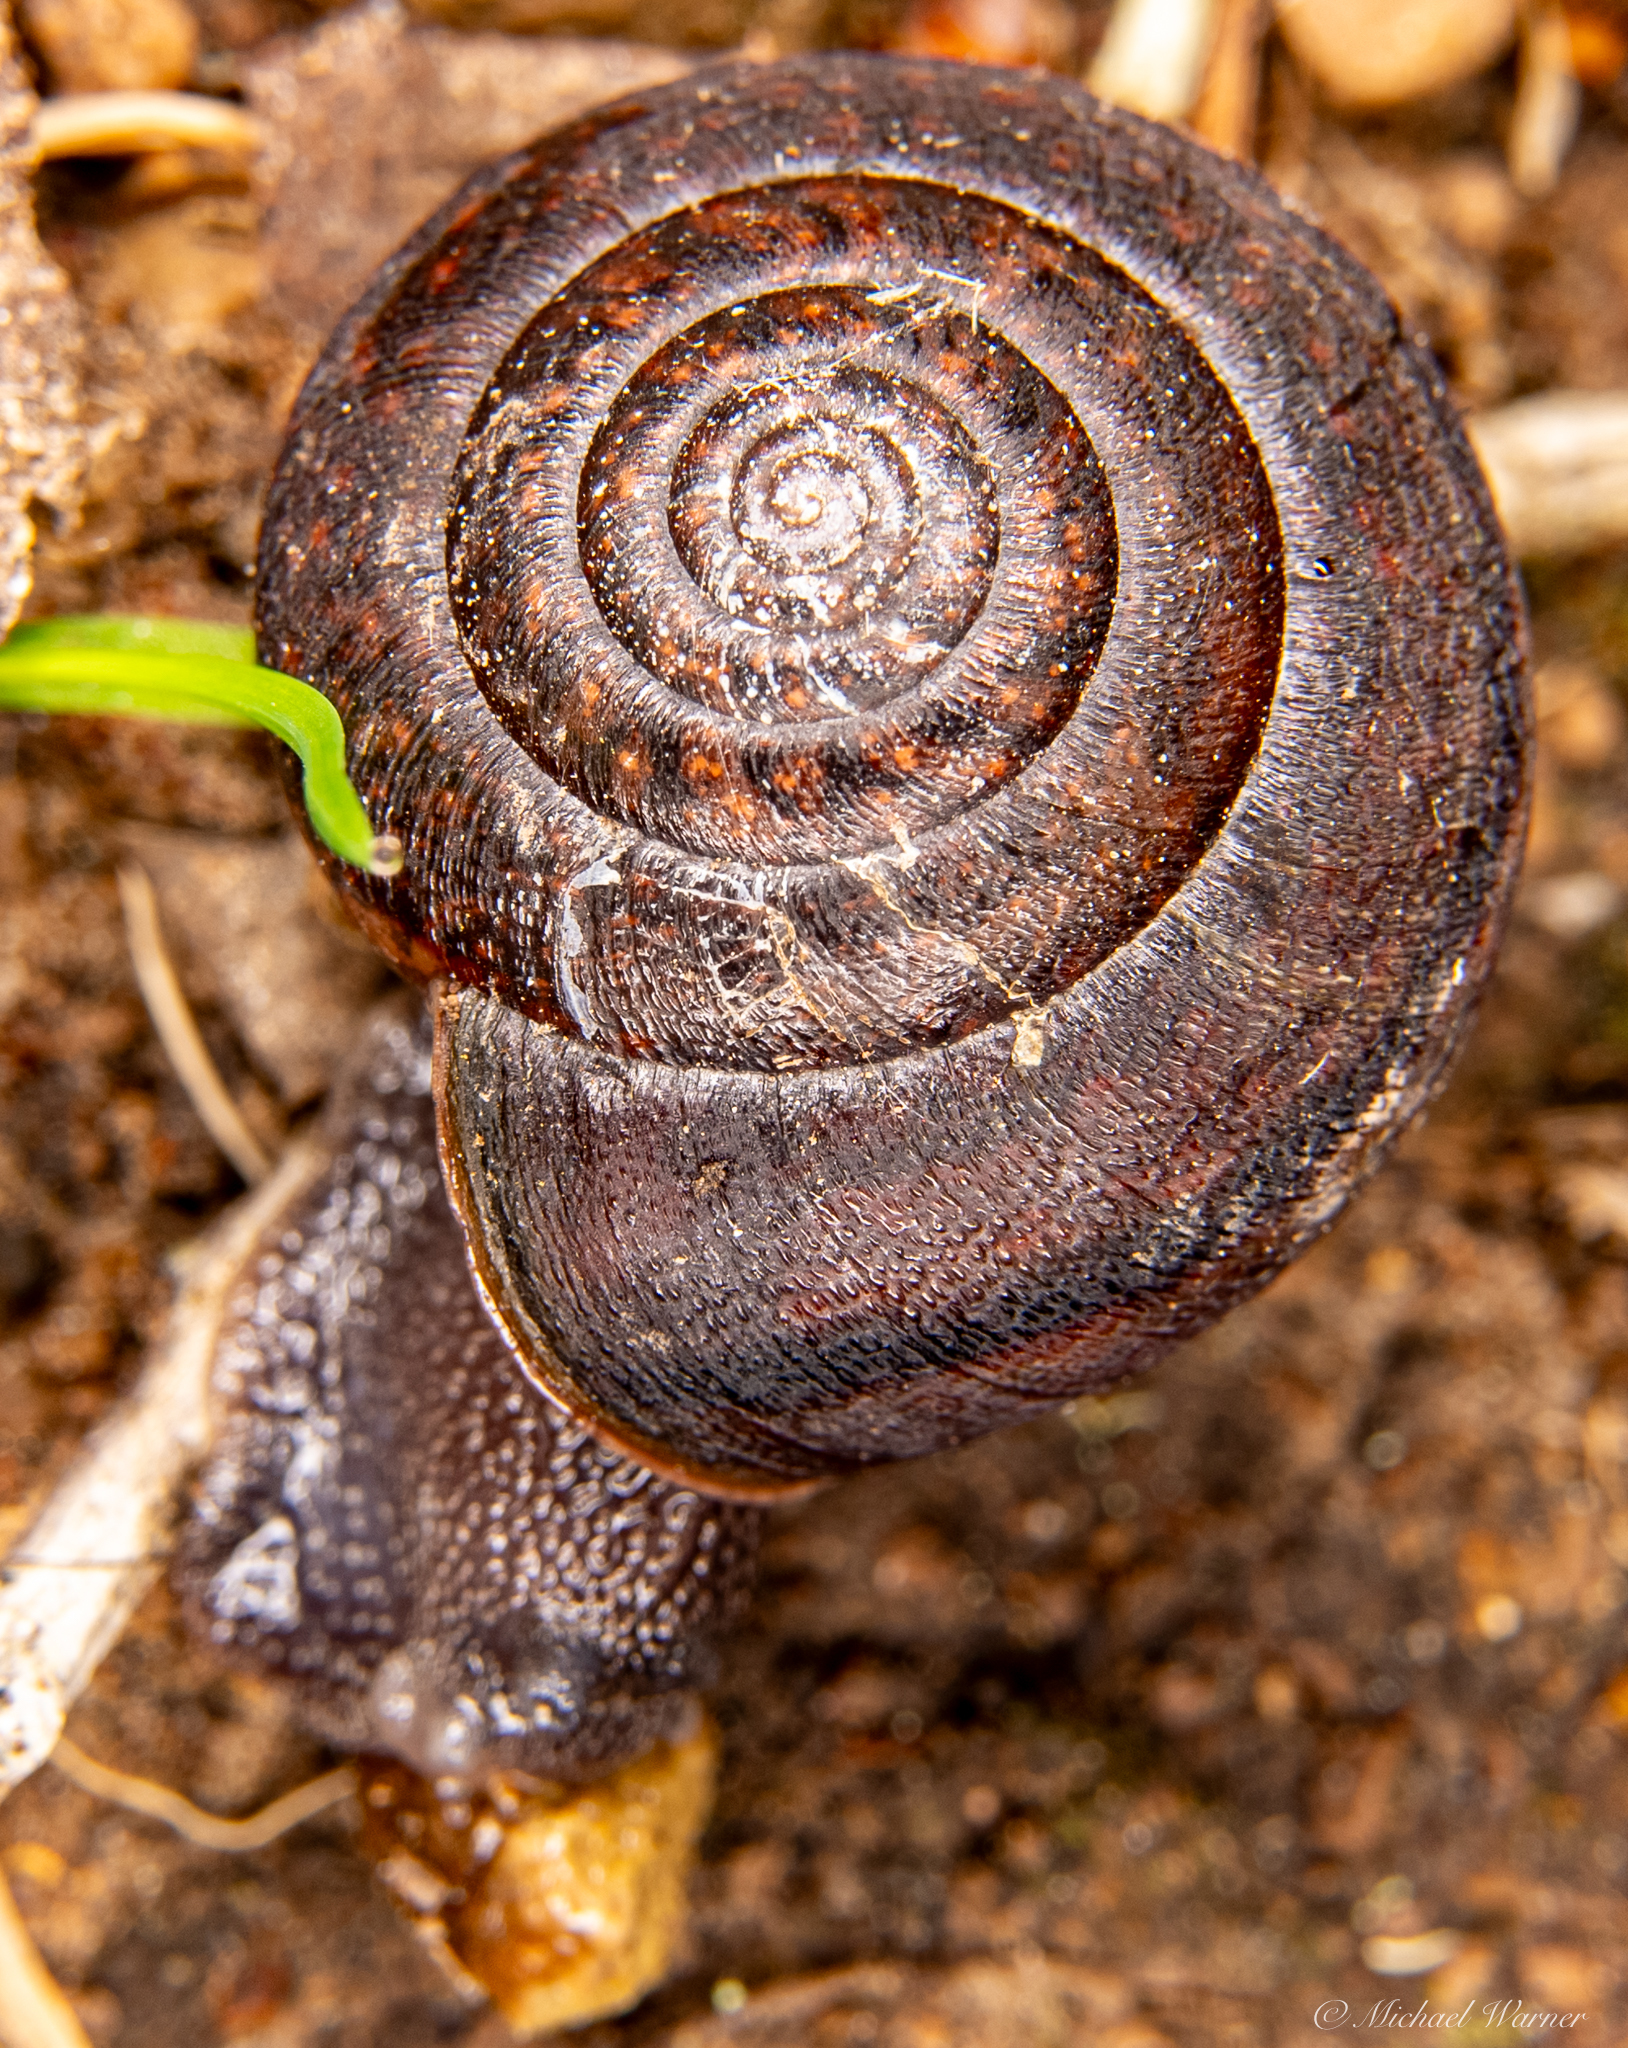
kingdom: Animalia
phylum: Mollusca
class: Gastropoda
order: Stylommatophora
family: Xanthonychidae
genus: Helminthoglypta
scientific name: Helminthoglypta diabloensis
